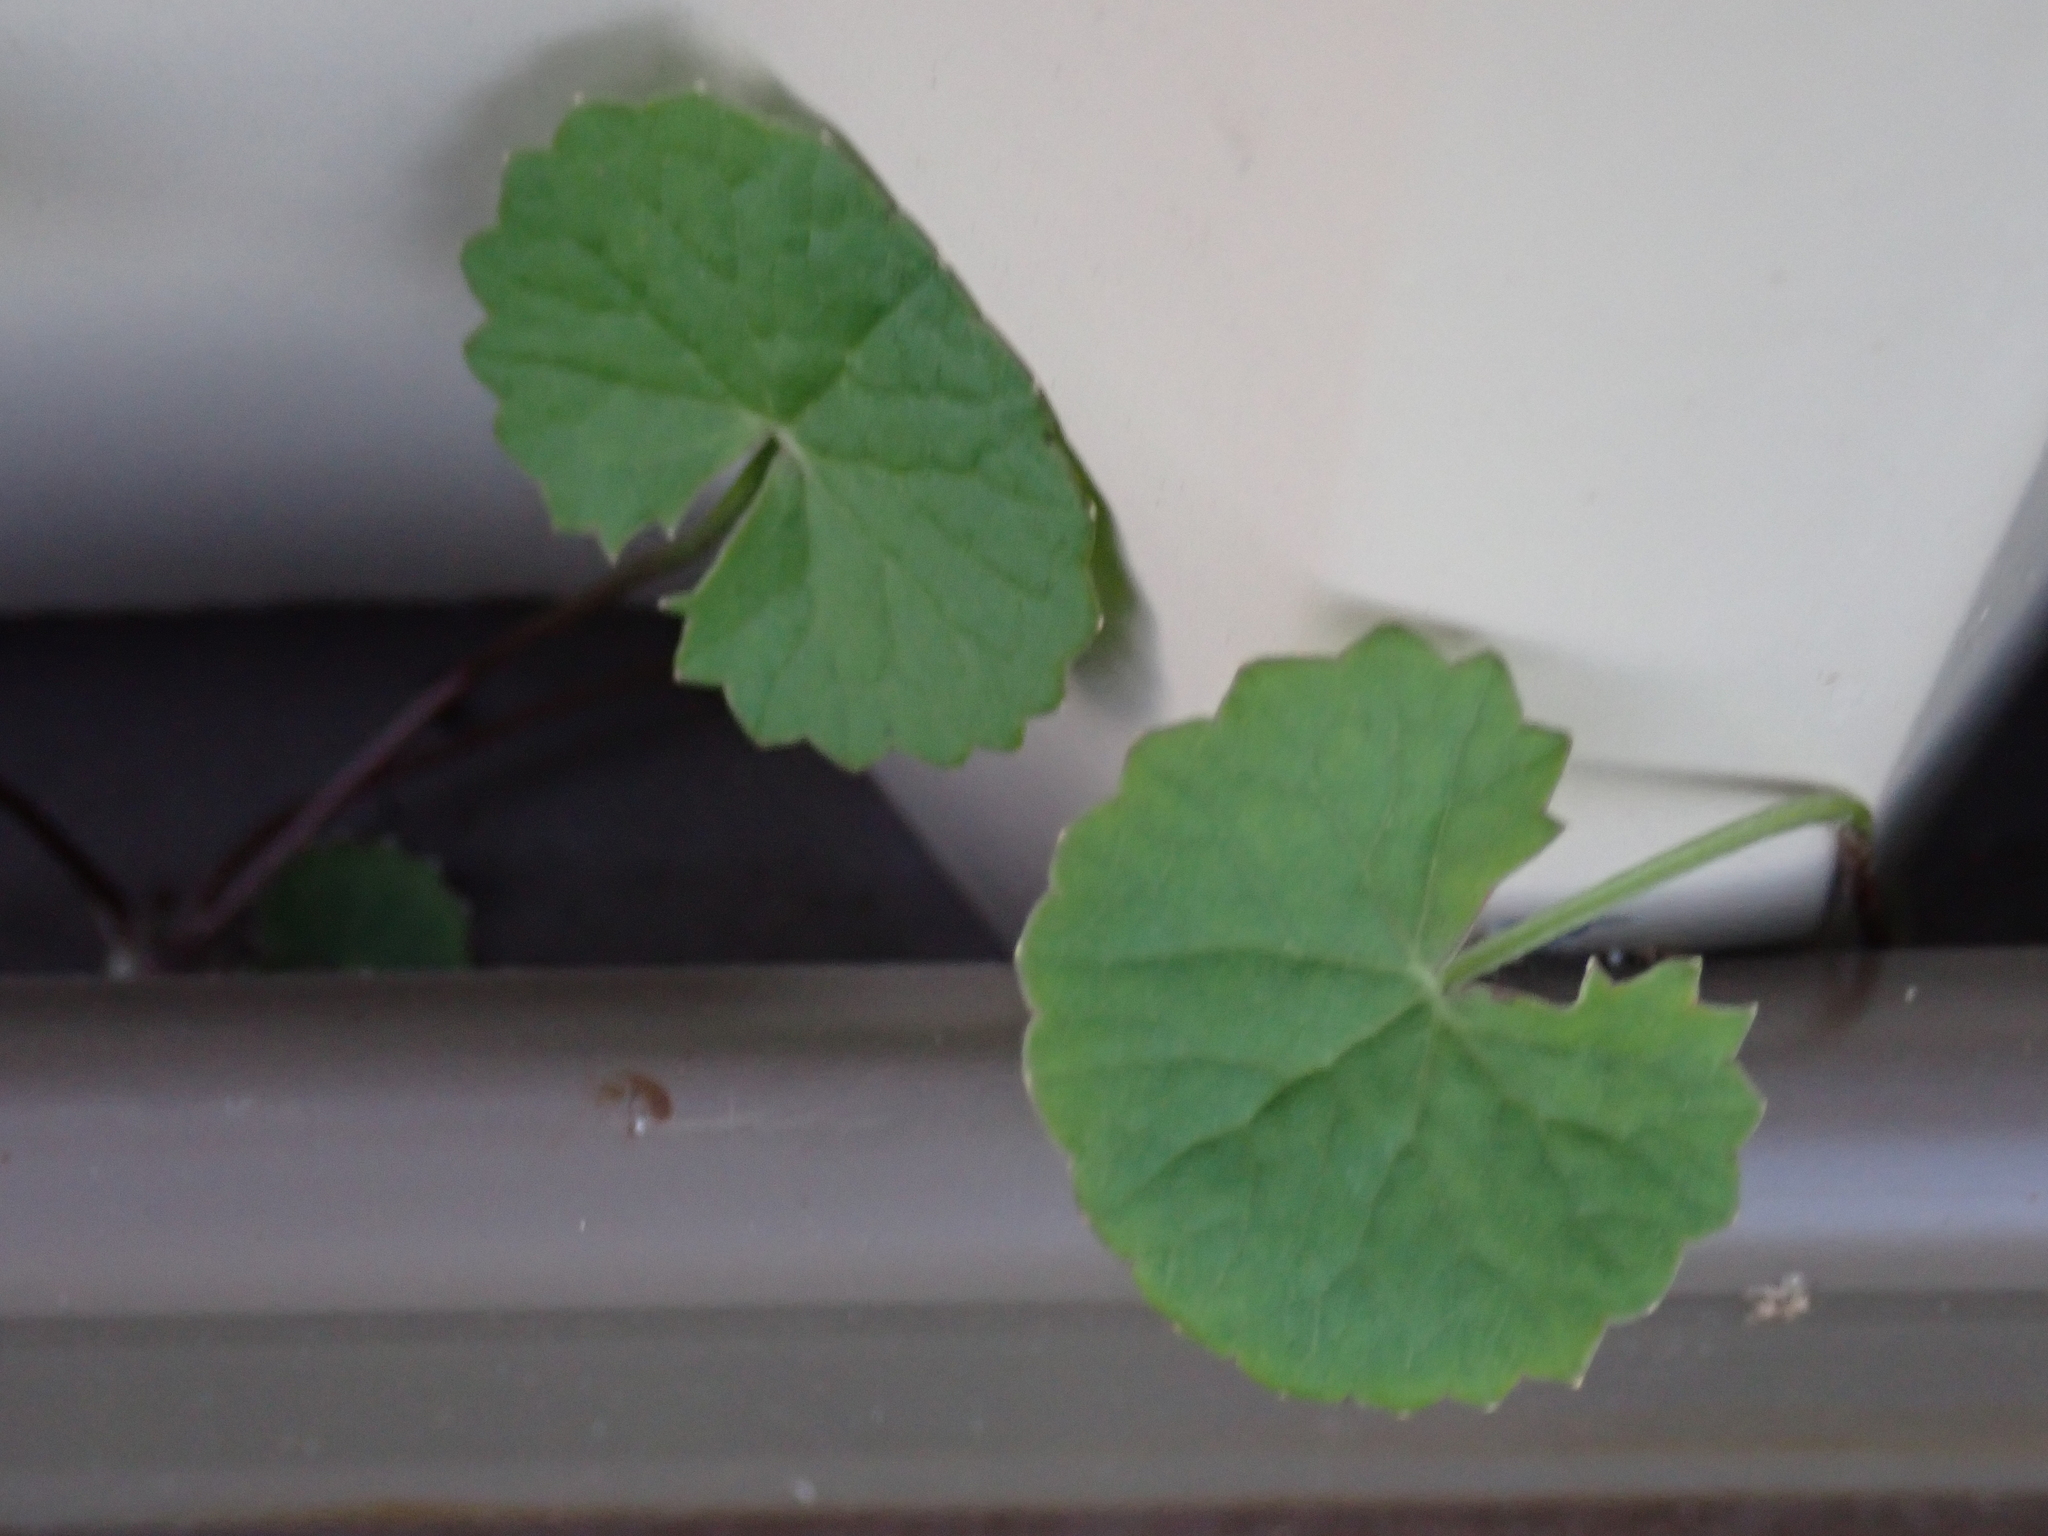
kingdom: Plantae
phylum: Tracheophyta
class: Magnoliopsida
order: Apiales
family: Apiaceae
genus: Centella
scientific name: Centella asiatica
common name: Spadeleaf
